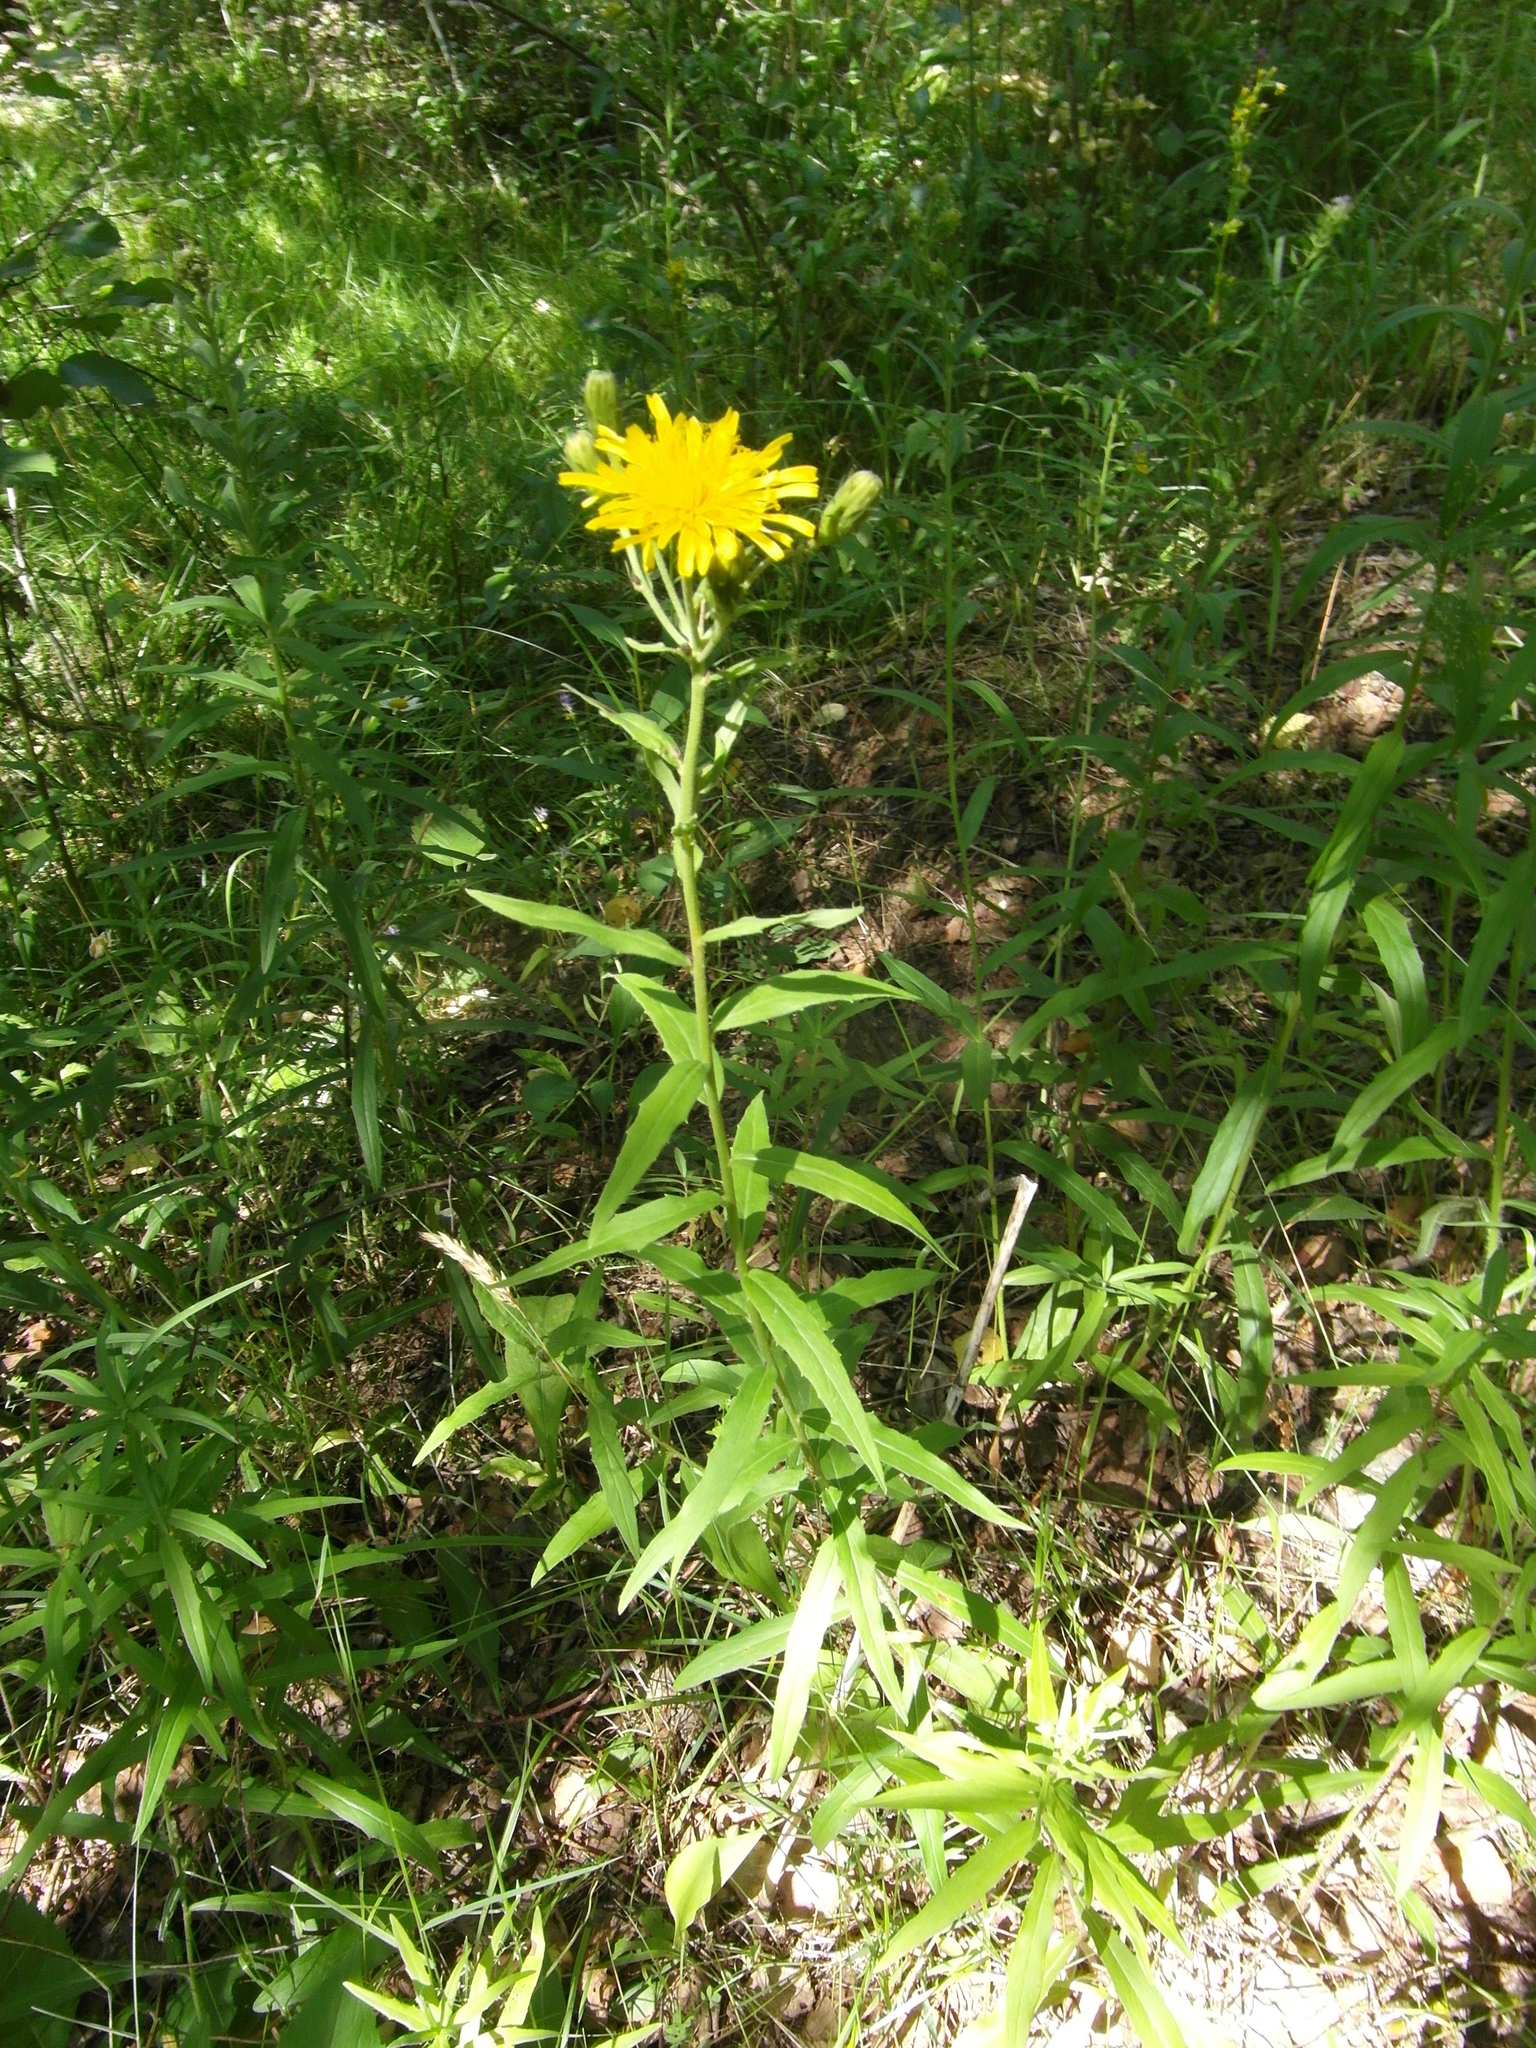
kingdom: Plantae
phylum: Tracheophyta
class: Magnoliopsida
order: Asterales
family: Asteraceae
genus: Hieracium
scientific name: Hieracium umbellatum
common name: Northern hawkweed
